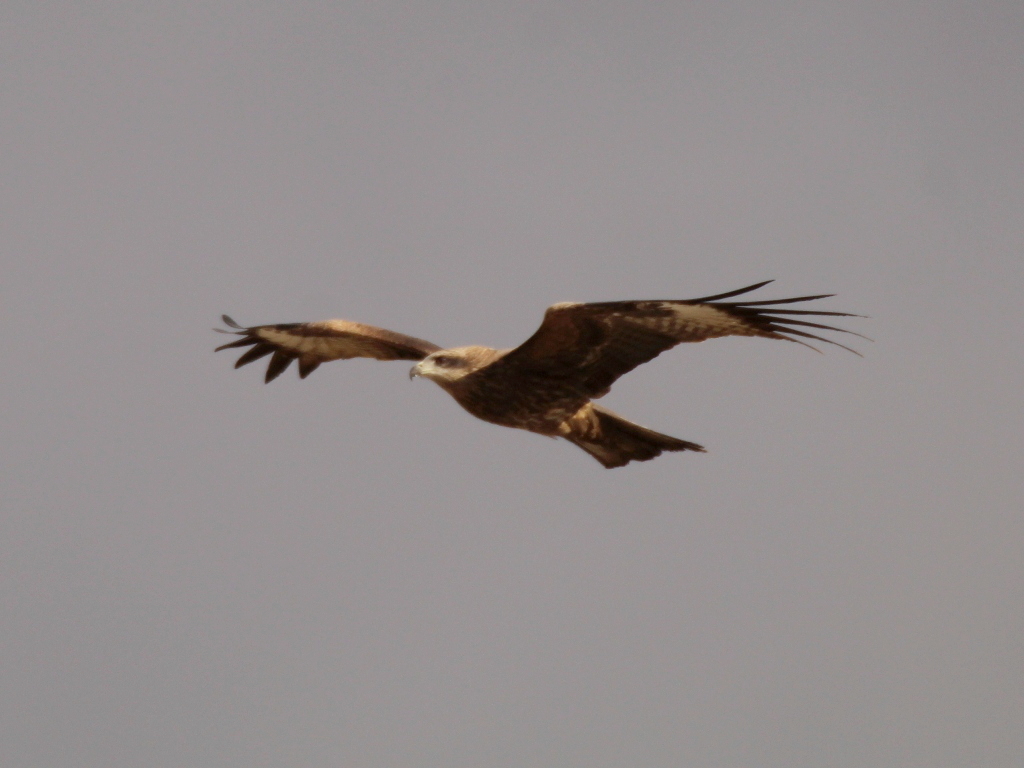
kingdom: Animalia
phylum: Chordata
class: Aves
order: Accipitriformes
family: Accipitridae
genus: Milvus
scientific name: Milvus migrans
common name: Black kite
